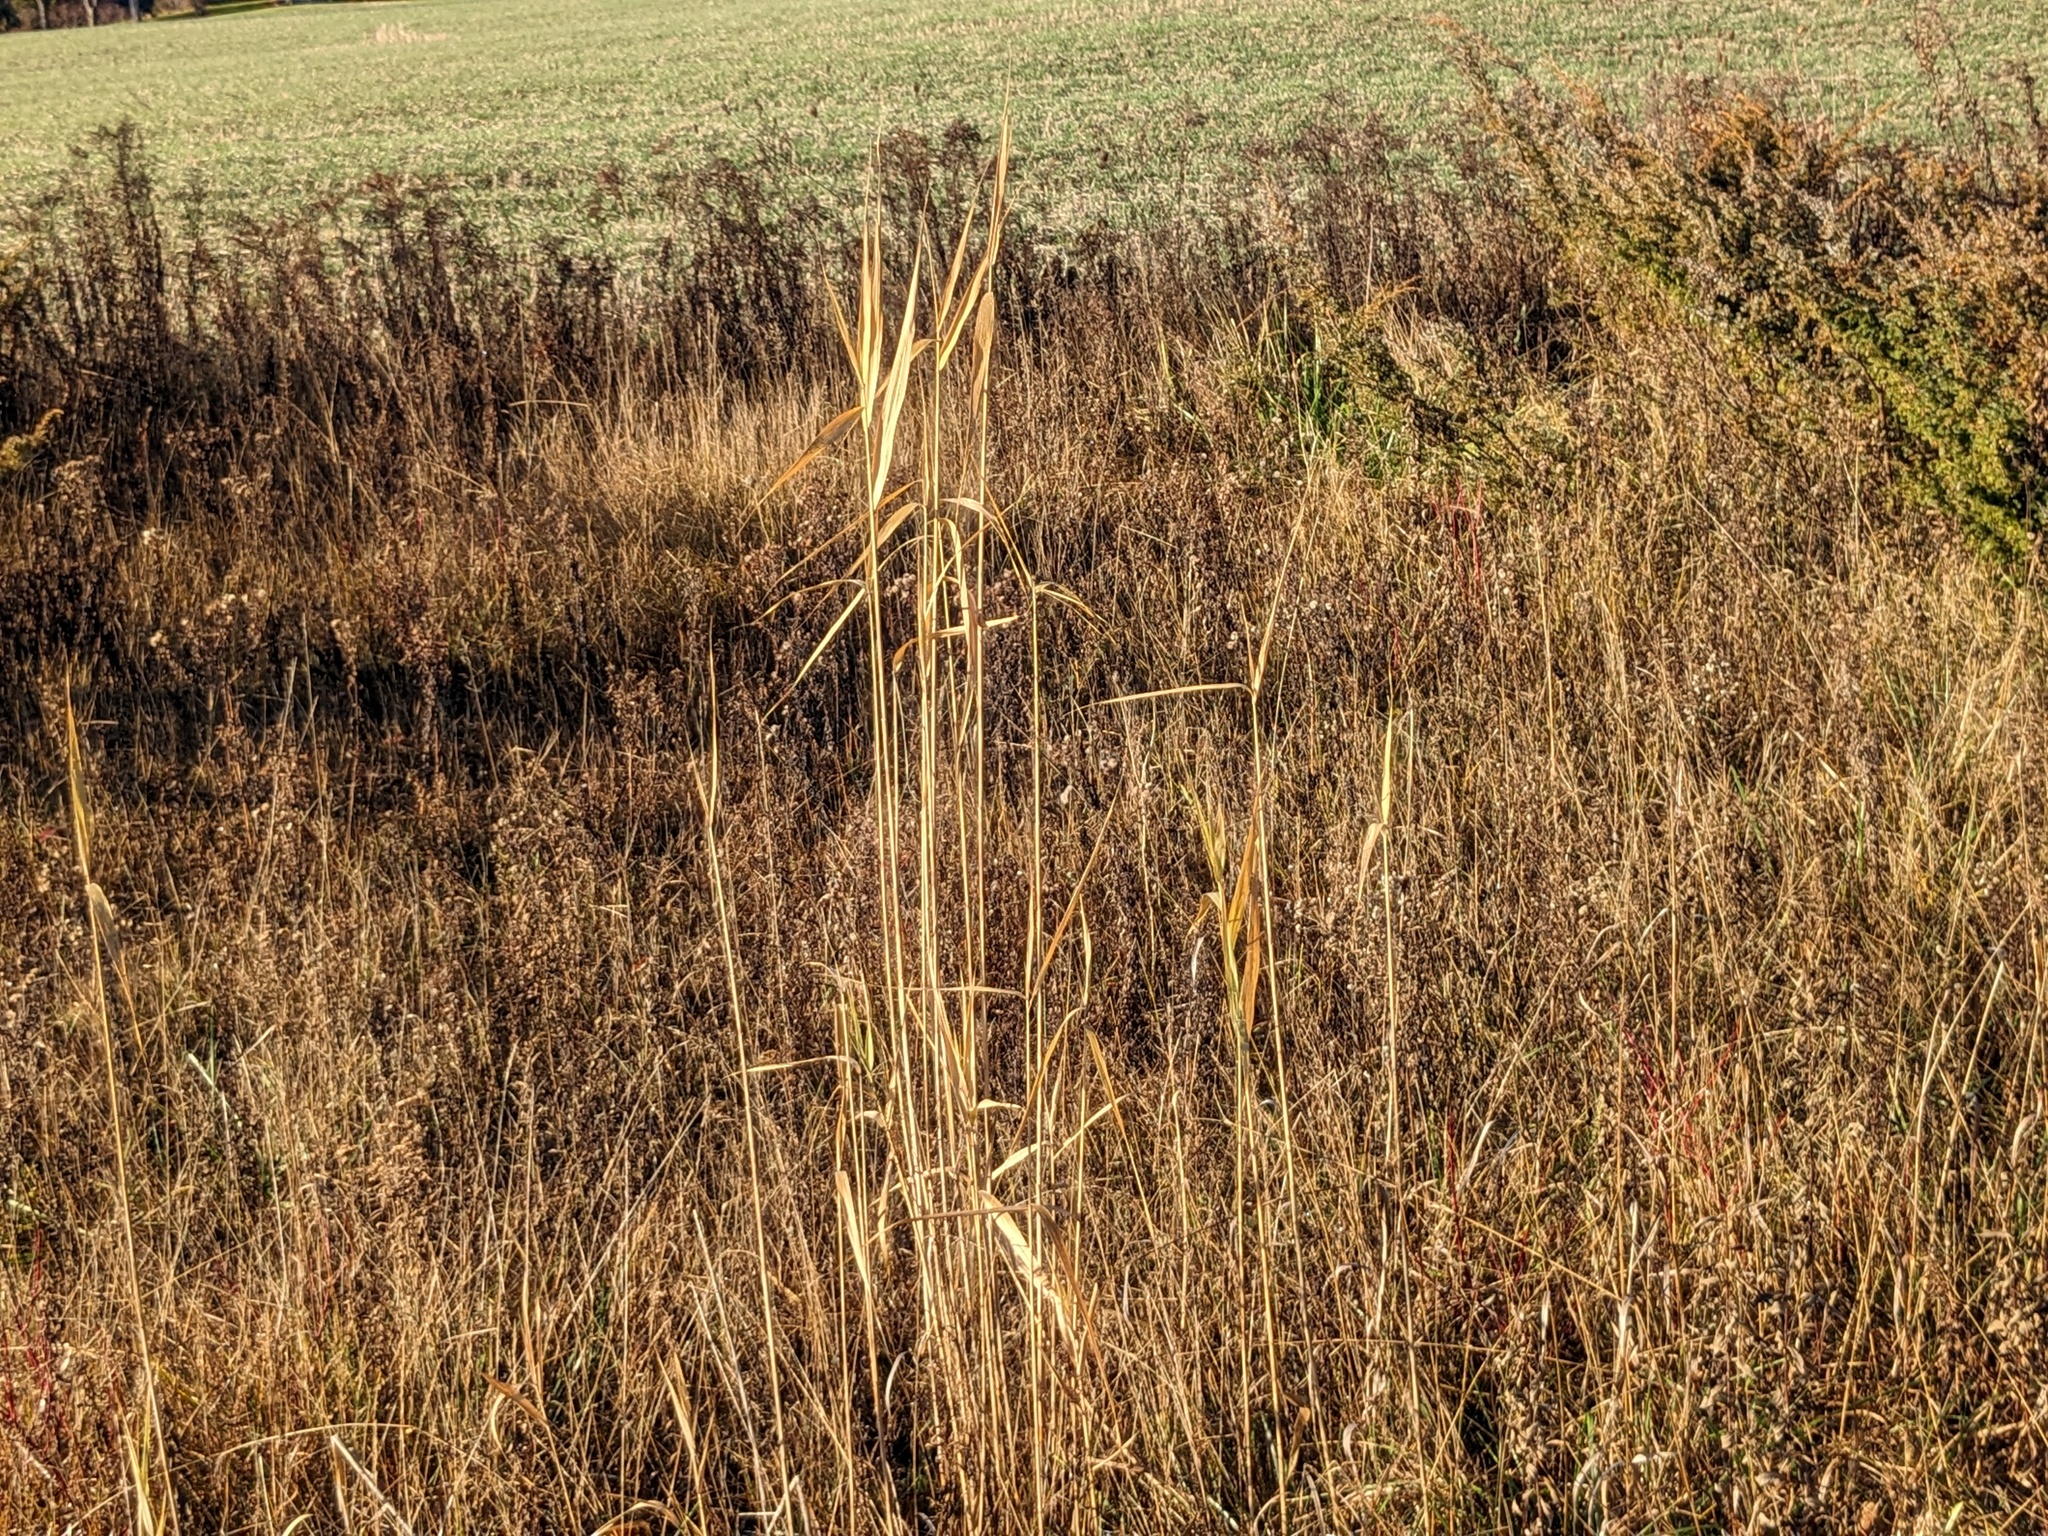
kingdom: Plantae
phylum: Tracheophyta
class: Liliopsida
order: Poales
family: Poaceae
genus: Phragmites
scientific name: Phragmites australis
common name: Common reed
